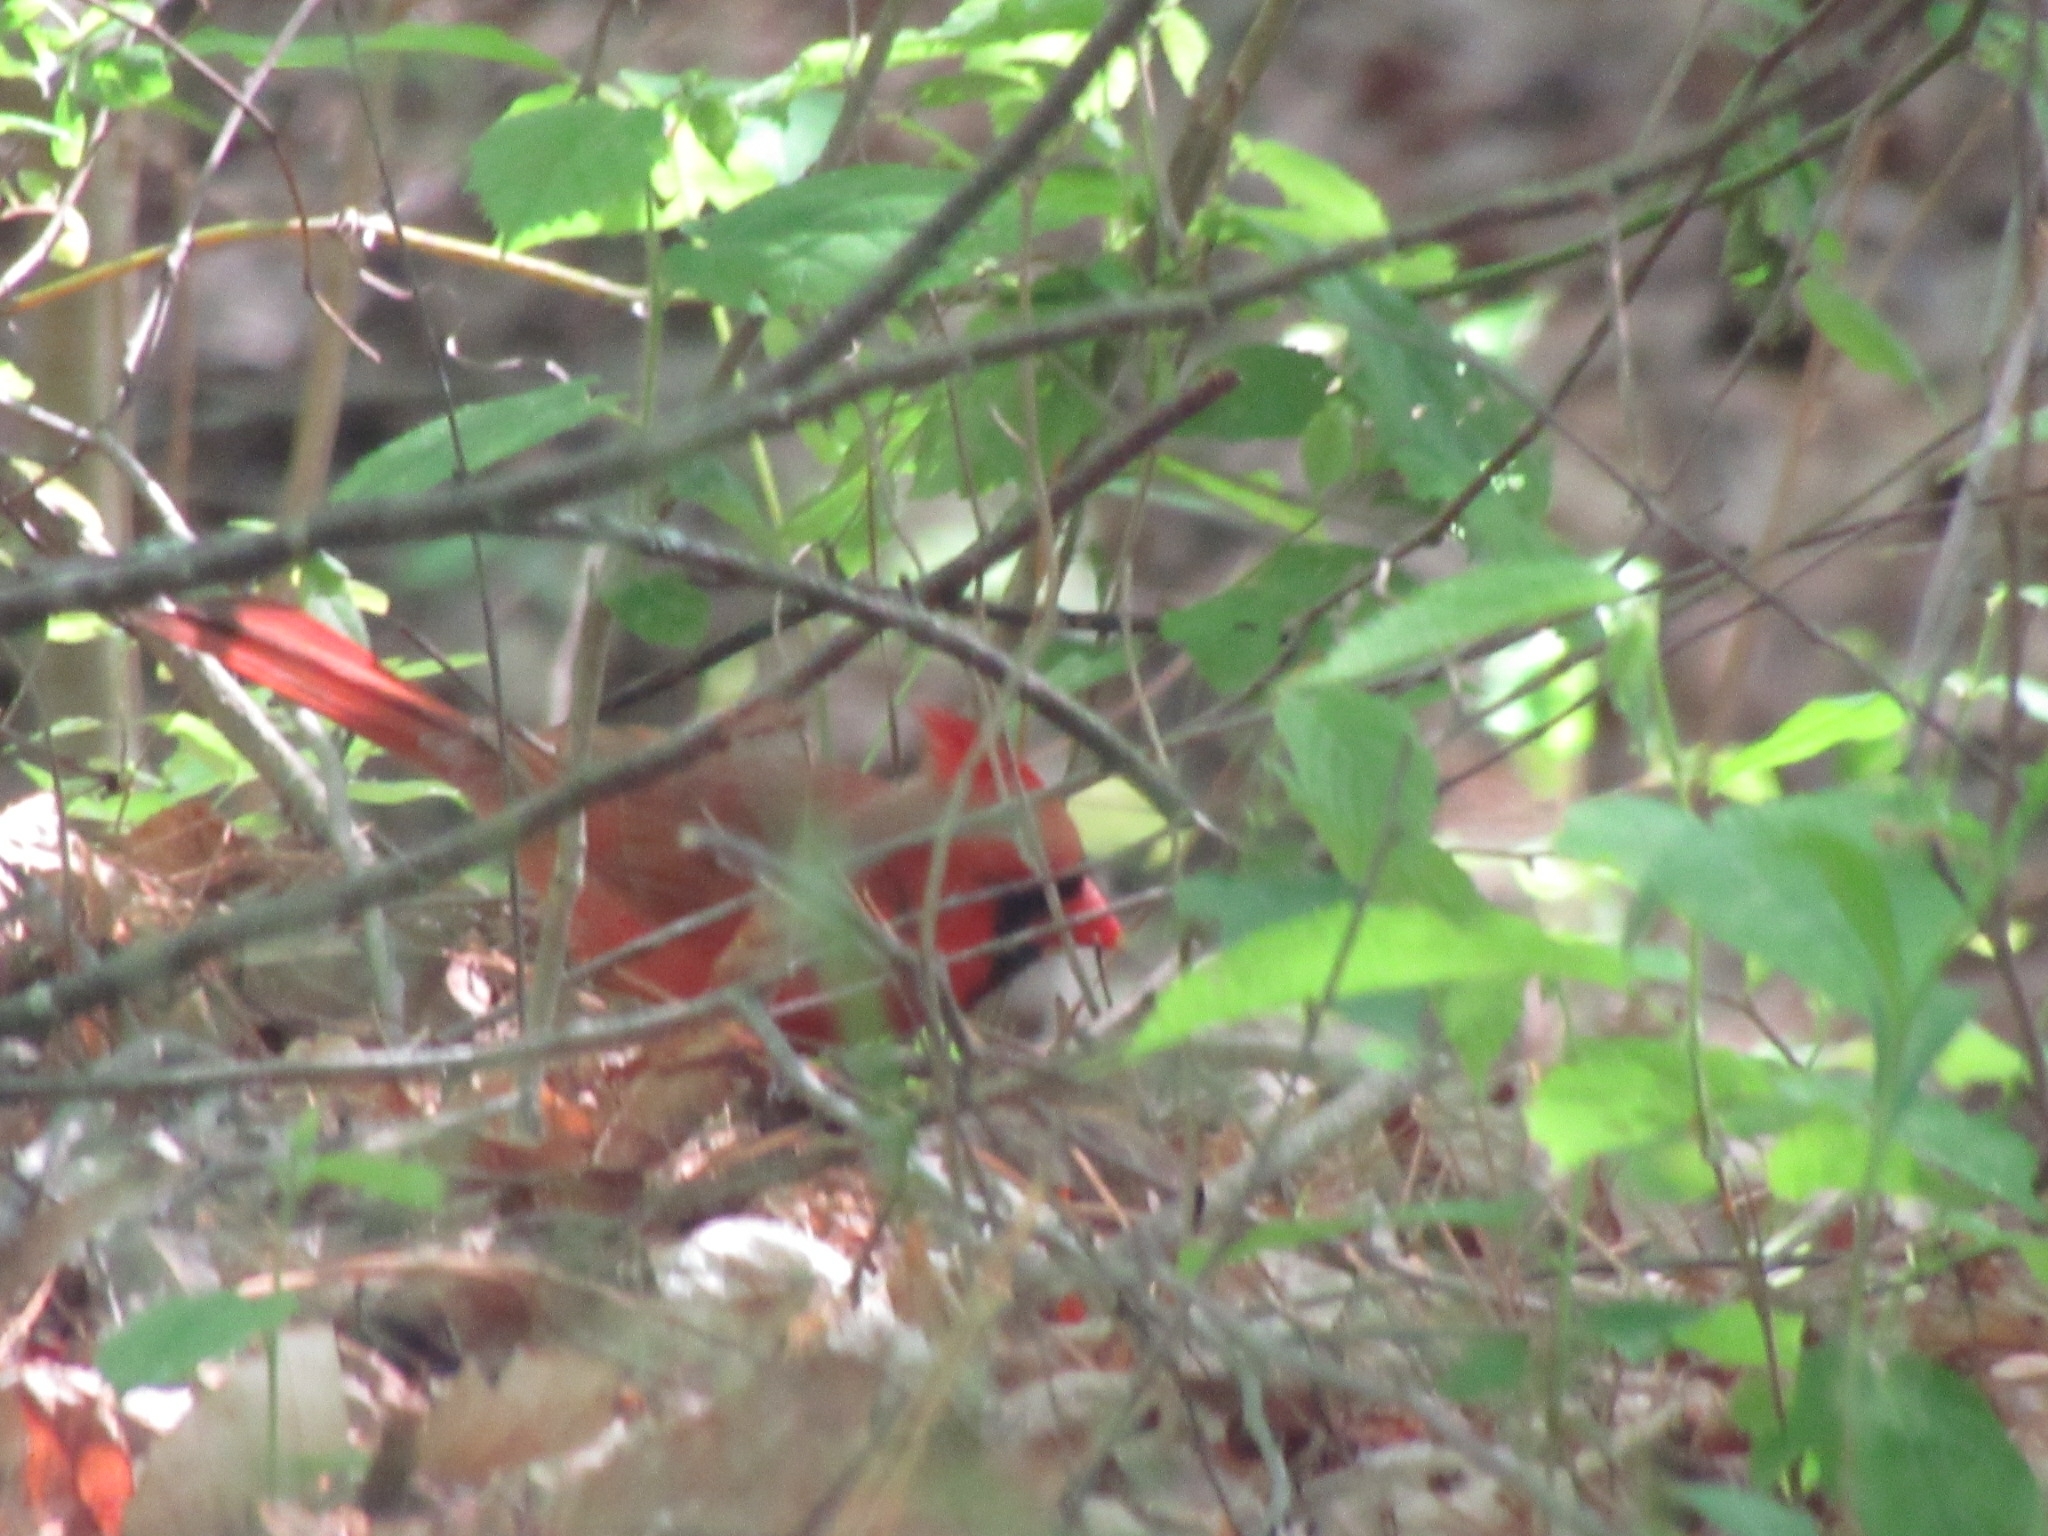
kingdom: Animalia
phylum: Chordata
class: Aves
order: Passeriformes
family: Cardinalidae
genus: Cardinalis
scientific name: Cardinalis cardinalis
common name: Northern cardinal
